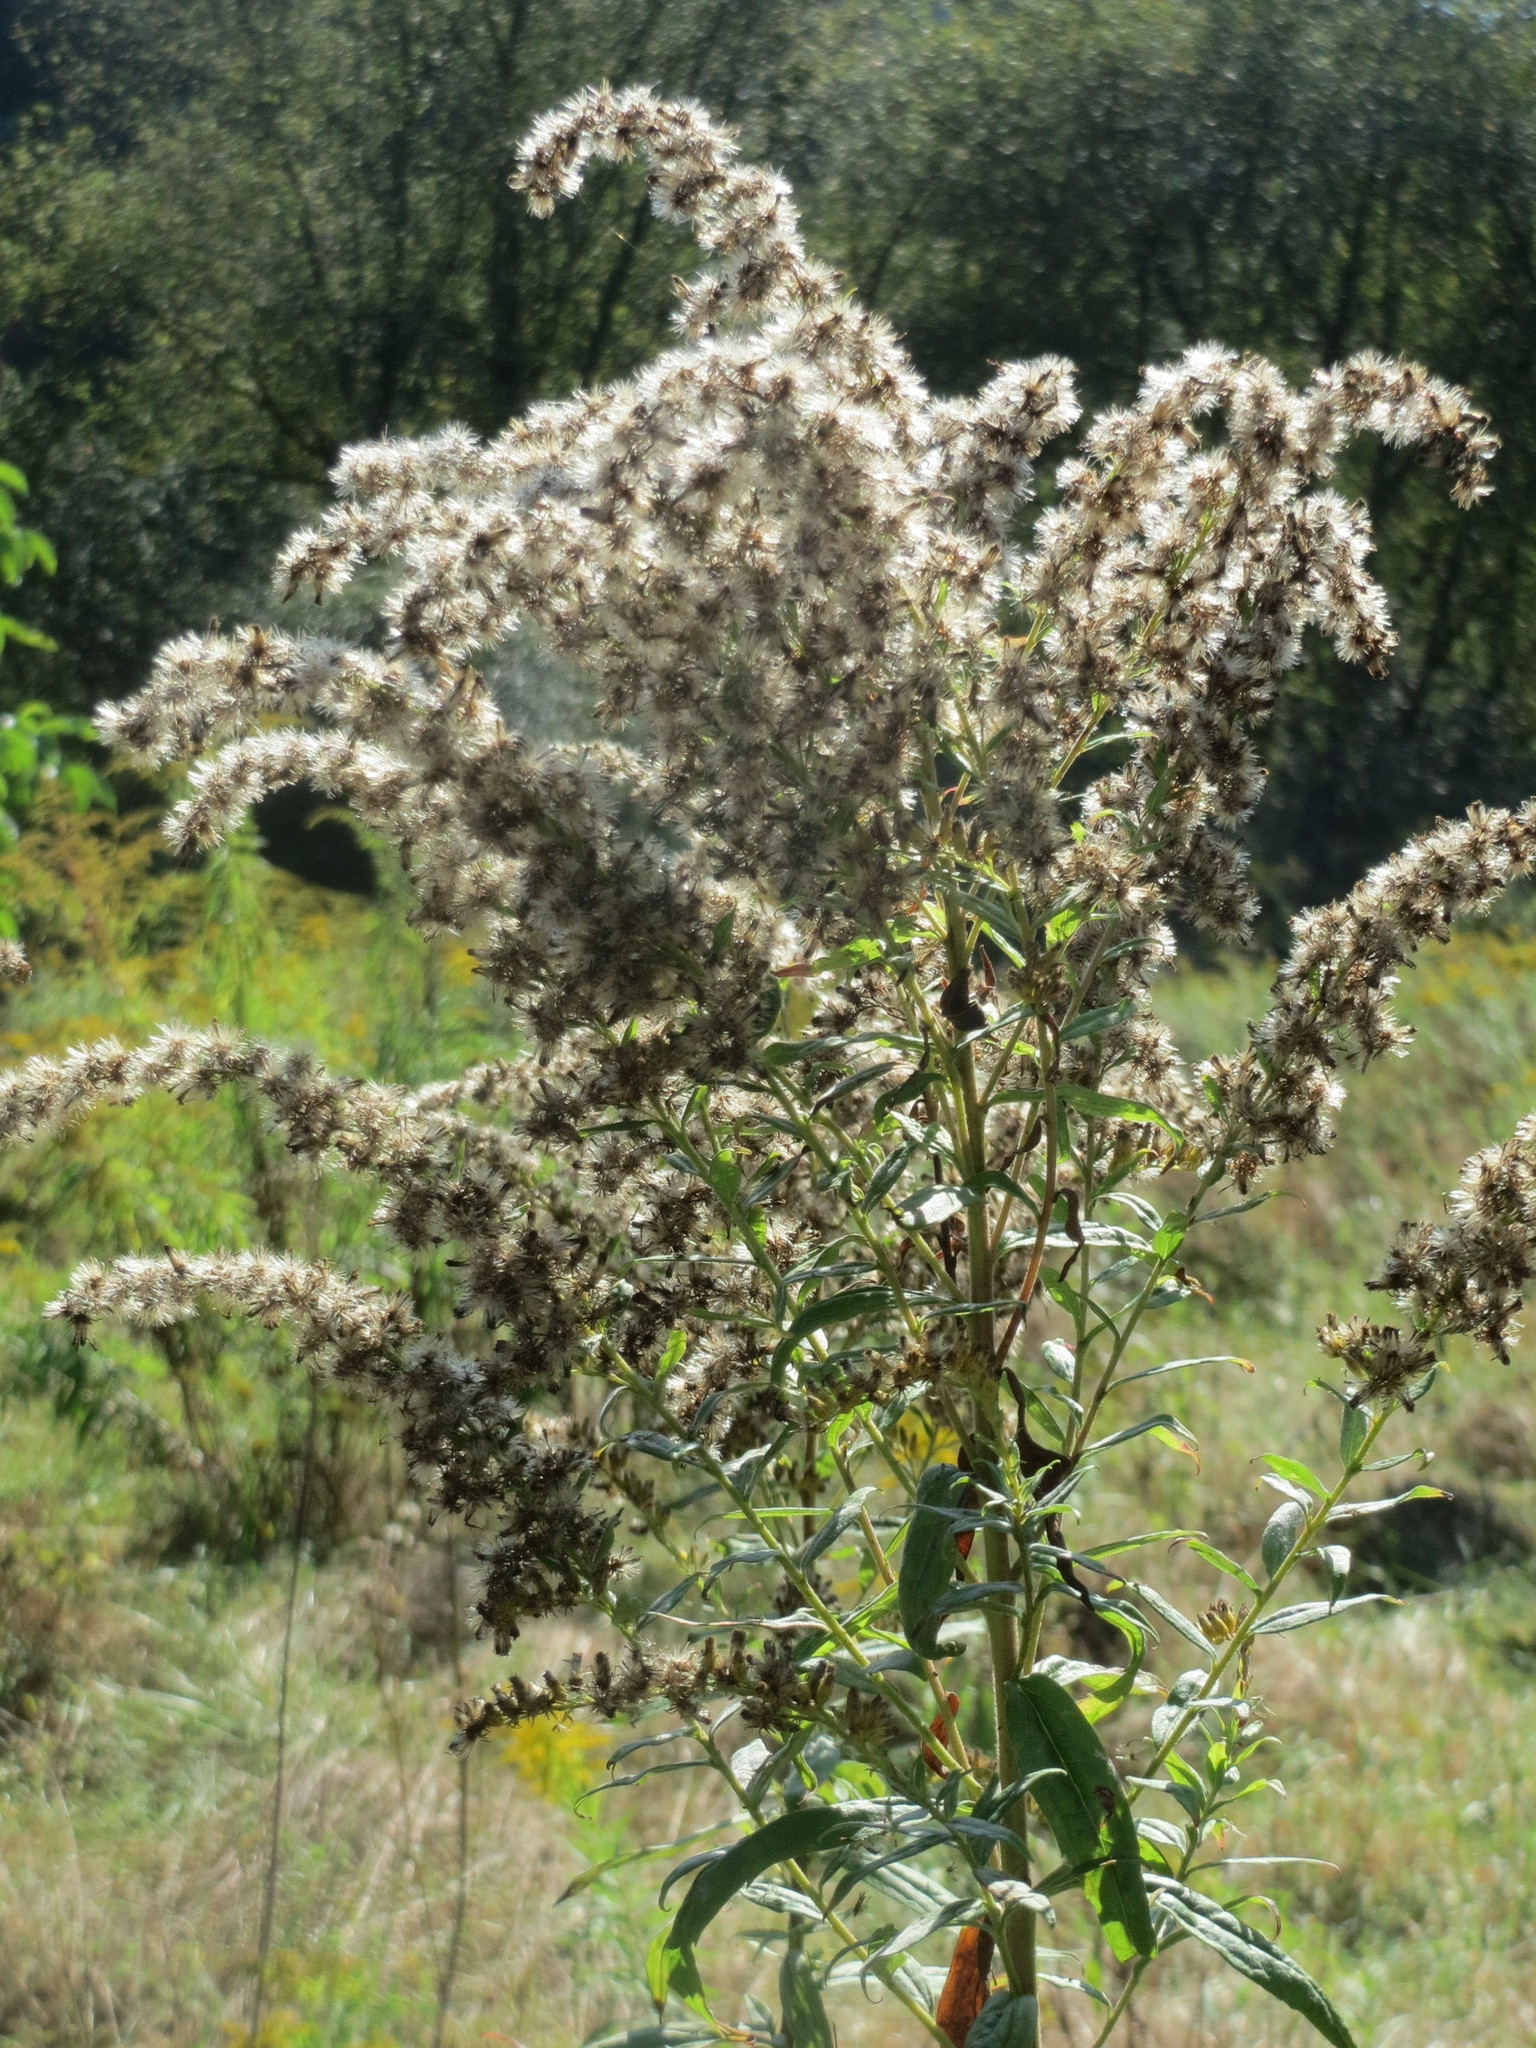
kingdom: Plantae
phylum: Tracheophyta
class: Magnoliopsida
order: Asterales
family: Asteraceae
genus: Solidago
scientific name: Solidago canadensis
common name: Canada goldenrod
